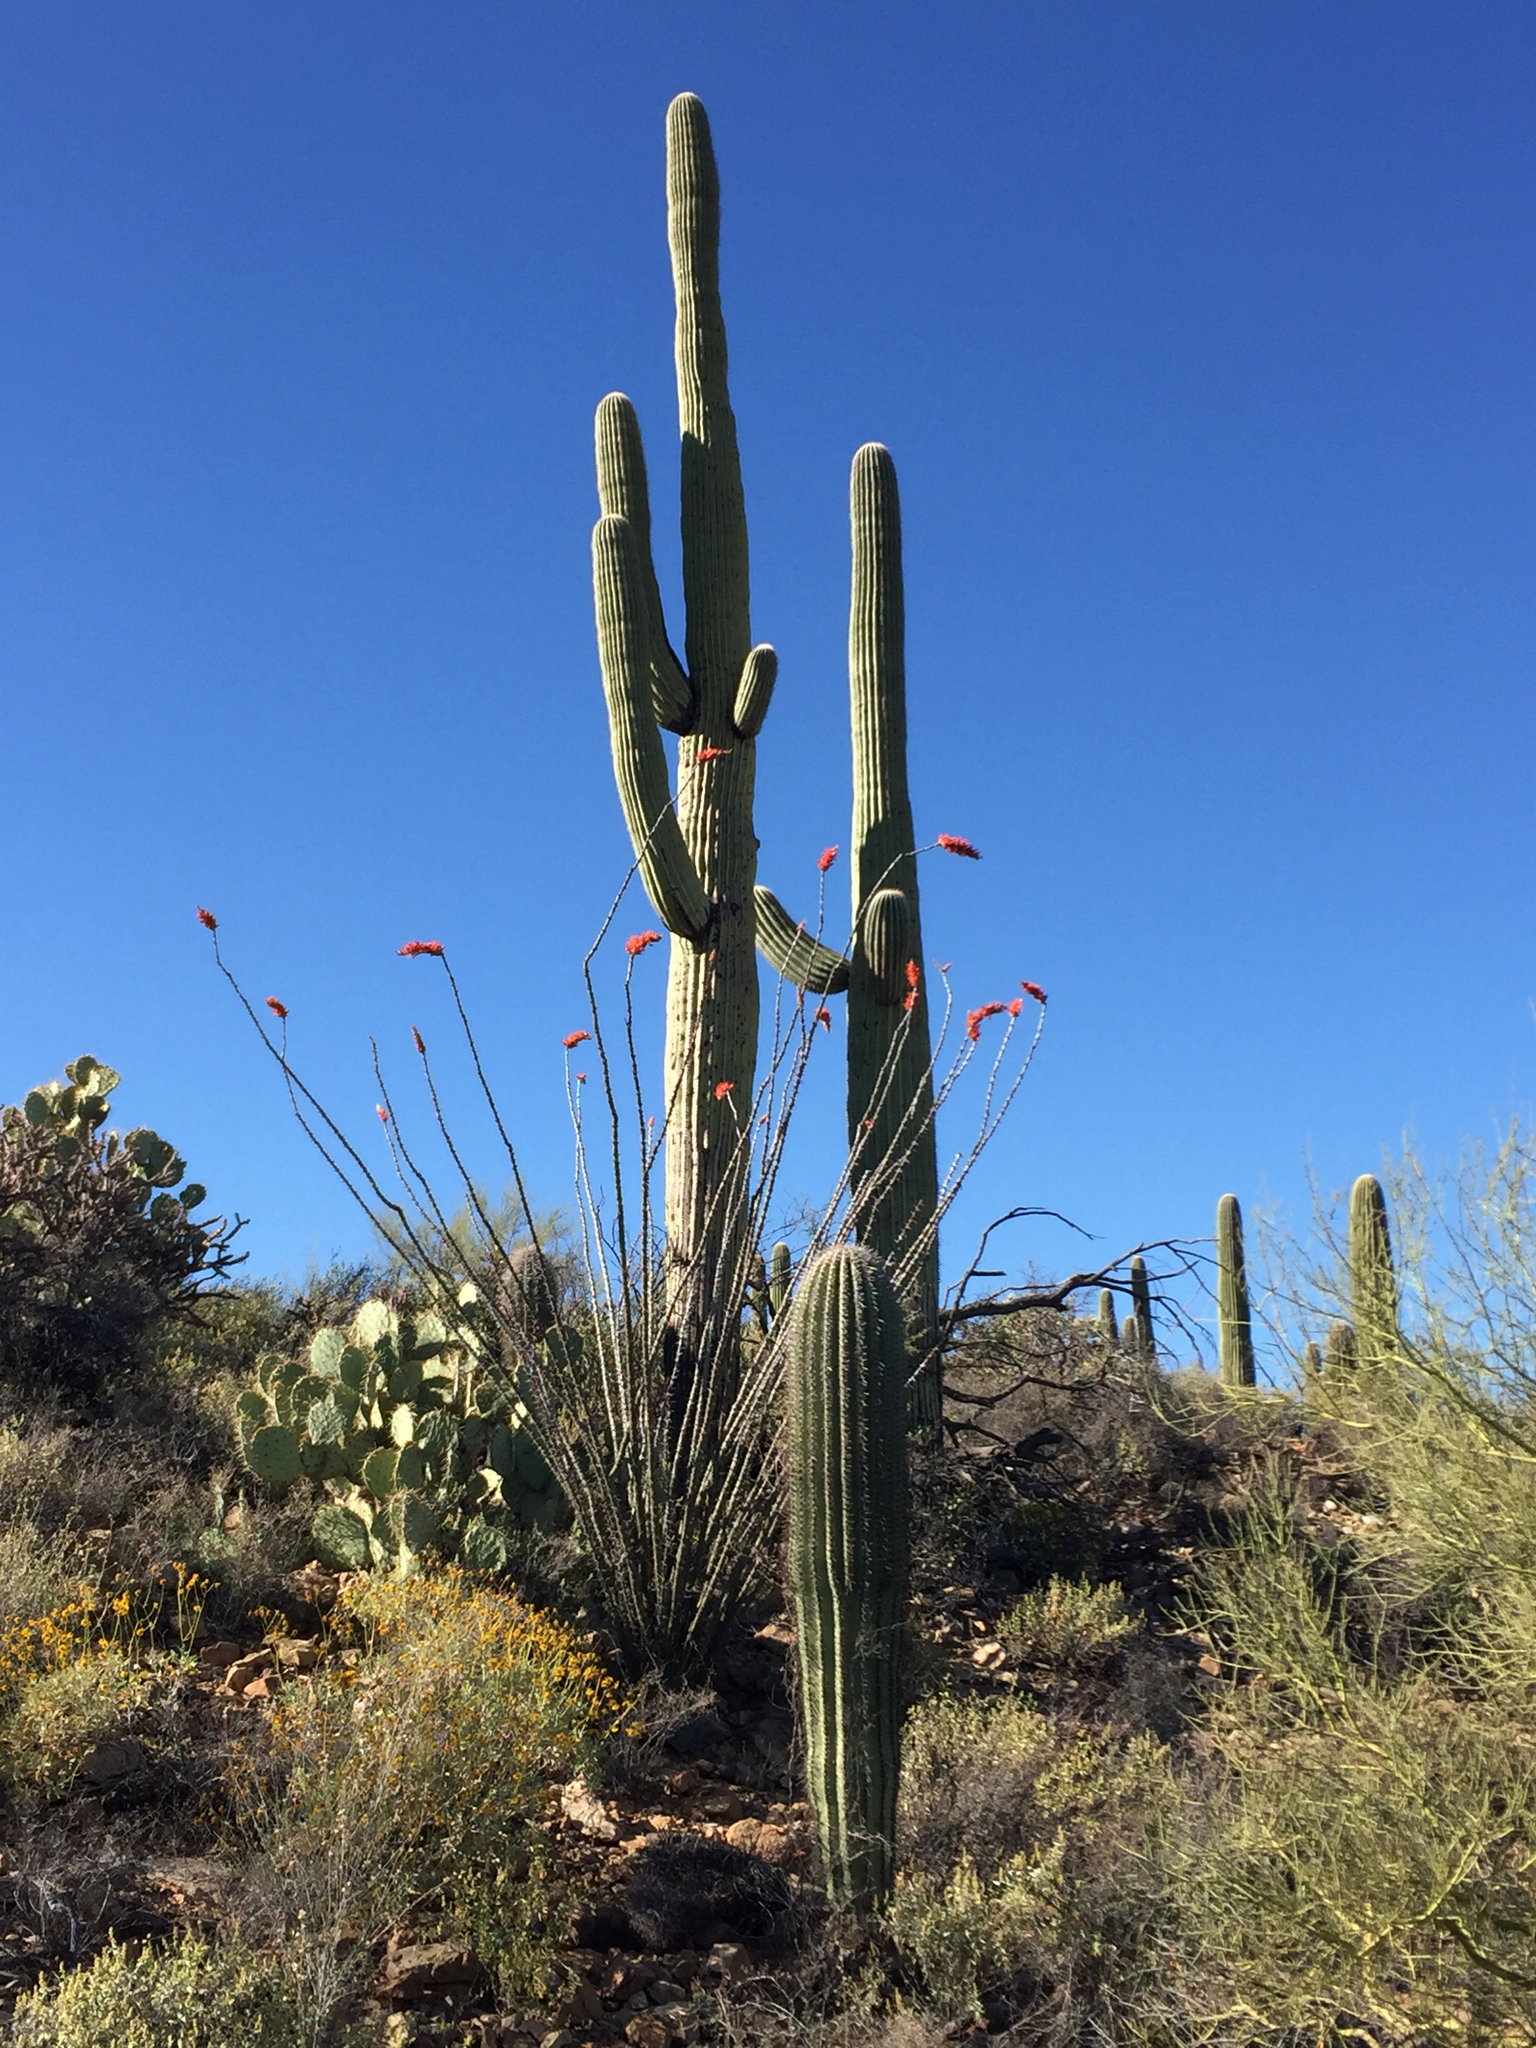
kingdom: Plantae
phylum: Tracheophyta
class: Magnoliopsida
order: Caryophyllales
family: Cactaceae
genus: Carnegiea
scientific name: Carnegiea gigantea
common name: Saguaro
